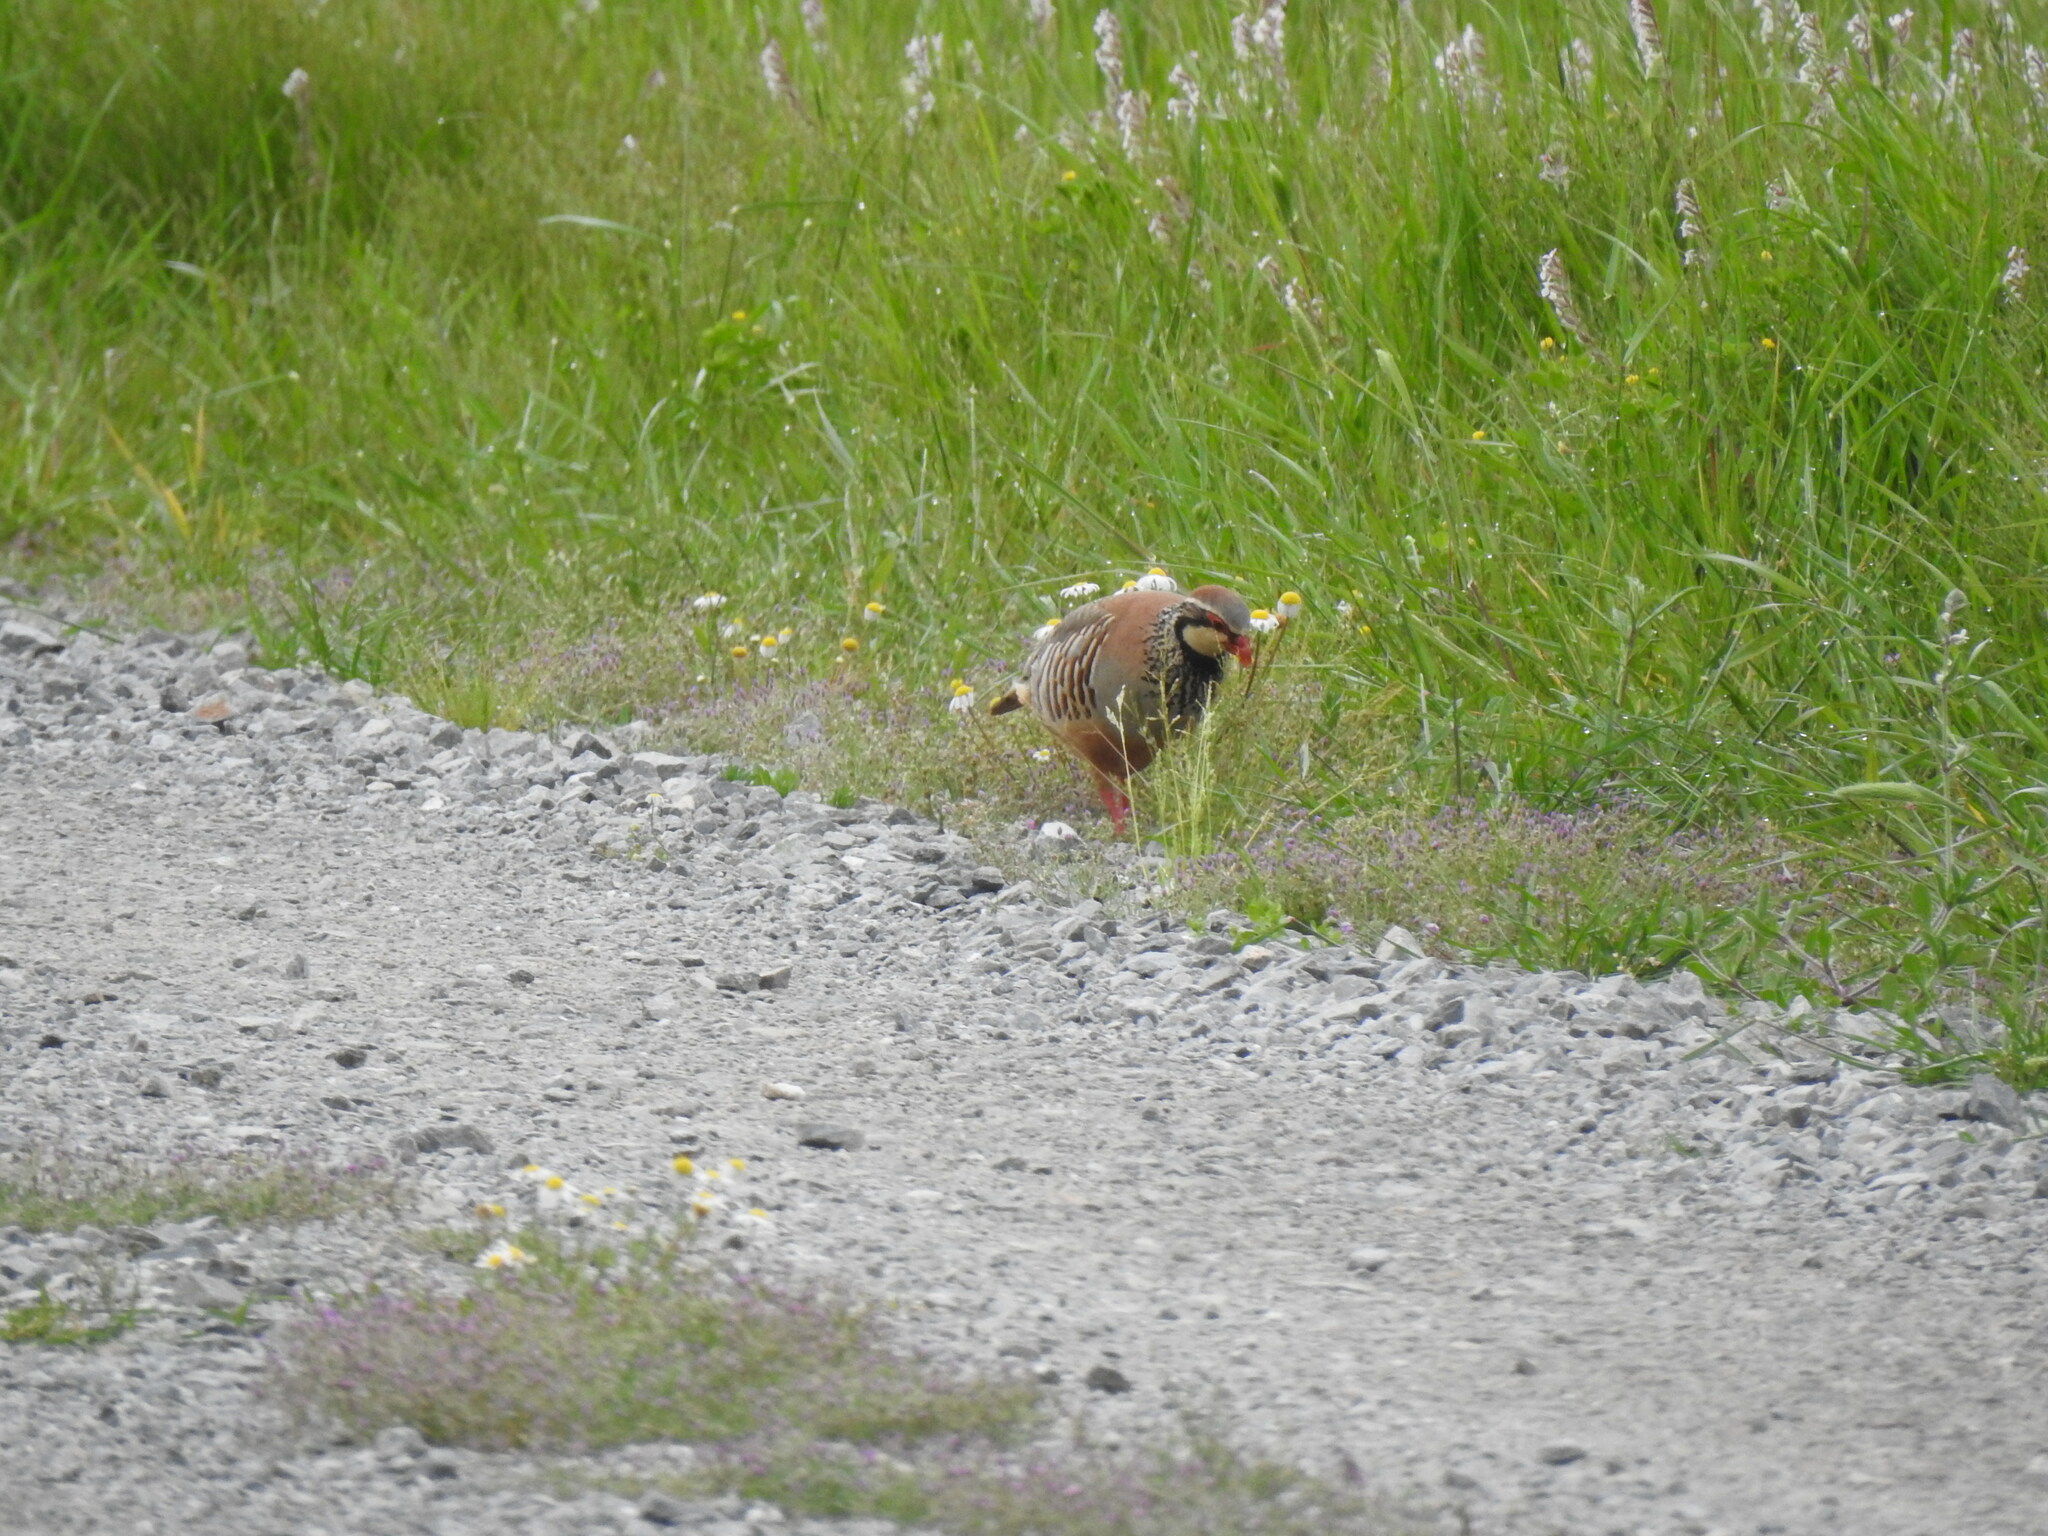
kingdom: Animalia
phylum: Chordata
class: Aves
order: Galliformes
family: Phasianidae
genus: Alectoris
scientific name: Alectoris rufa
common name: Red-legged partridge
